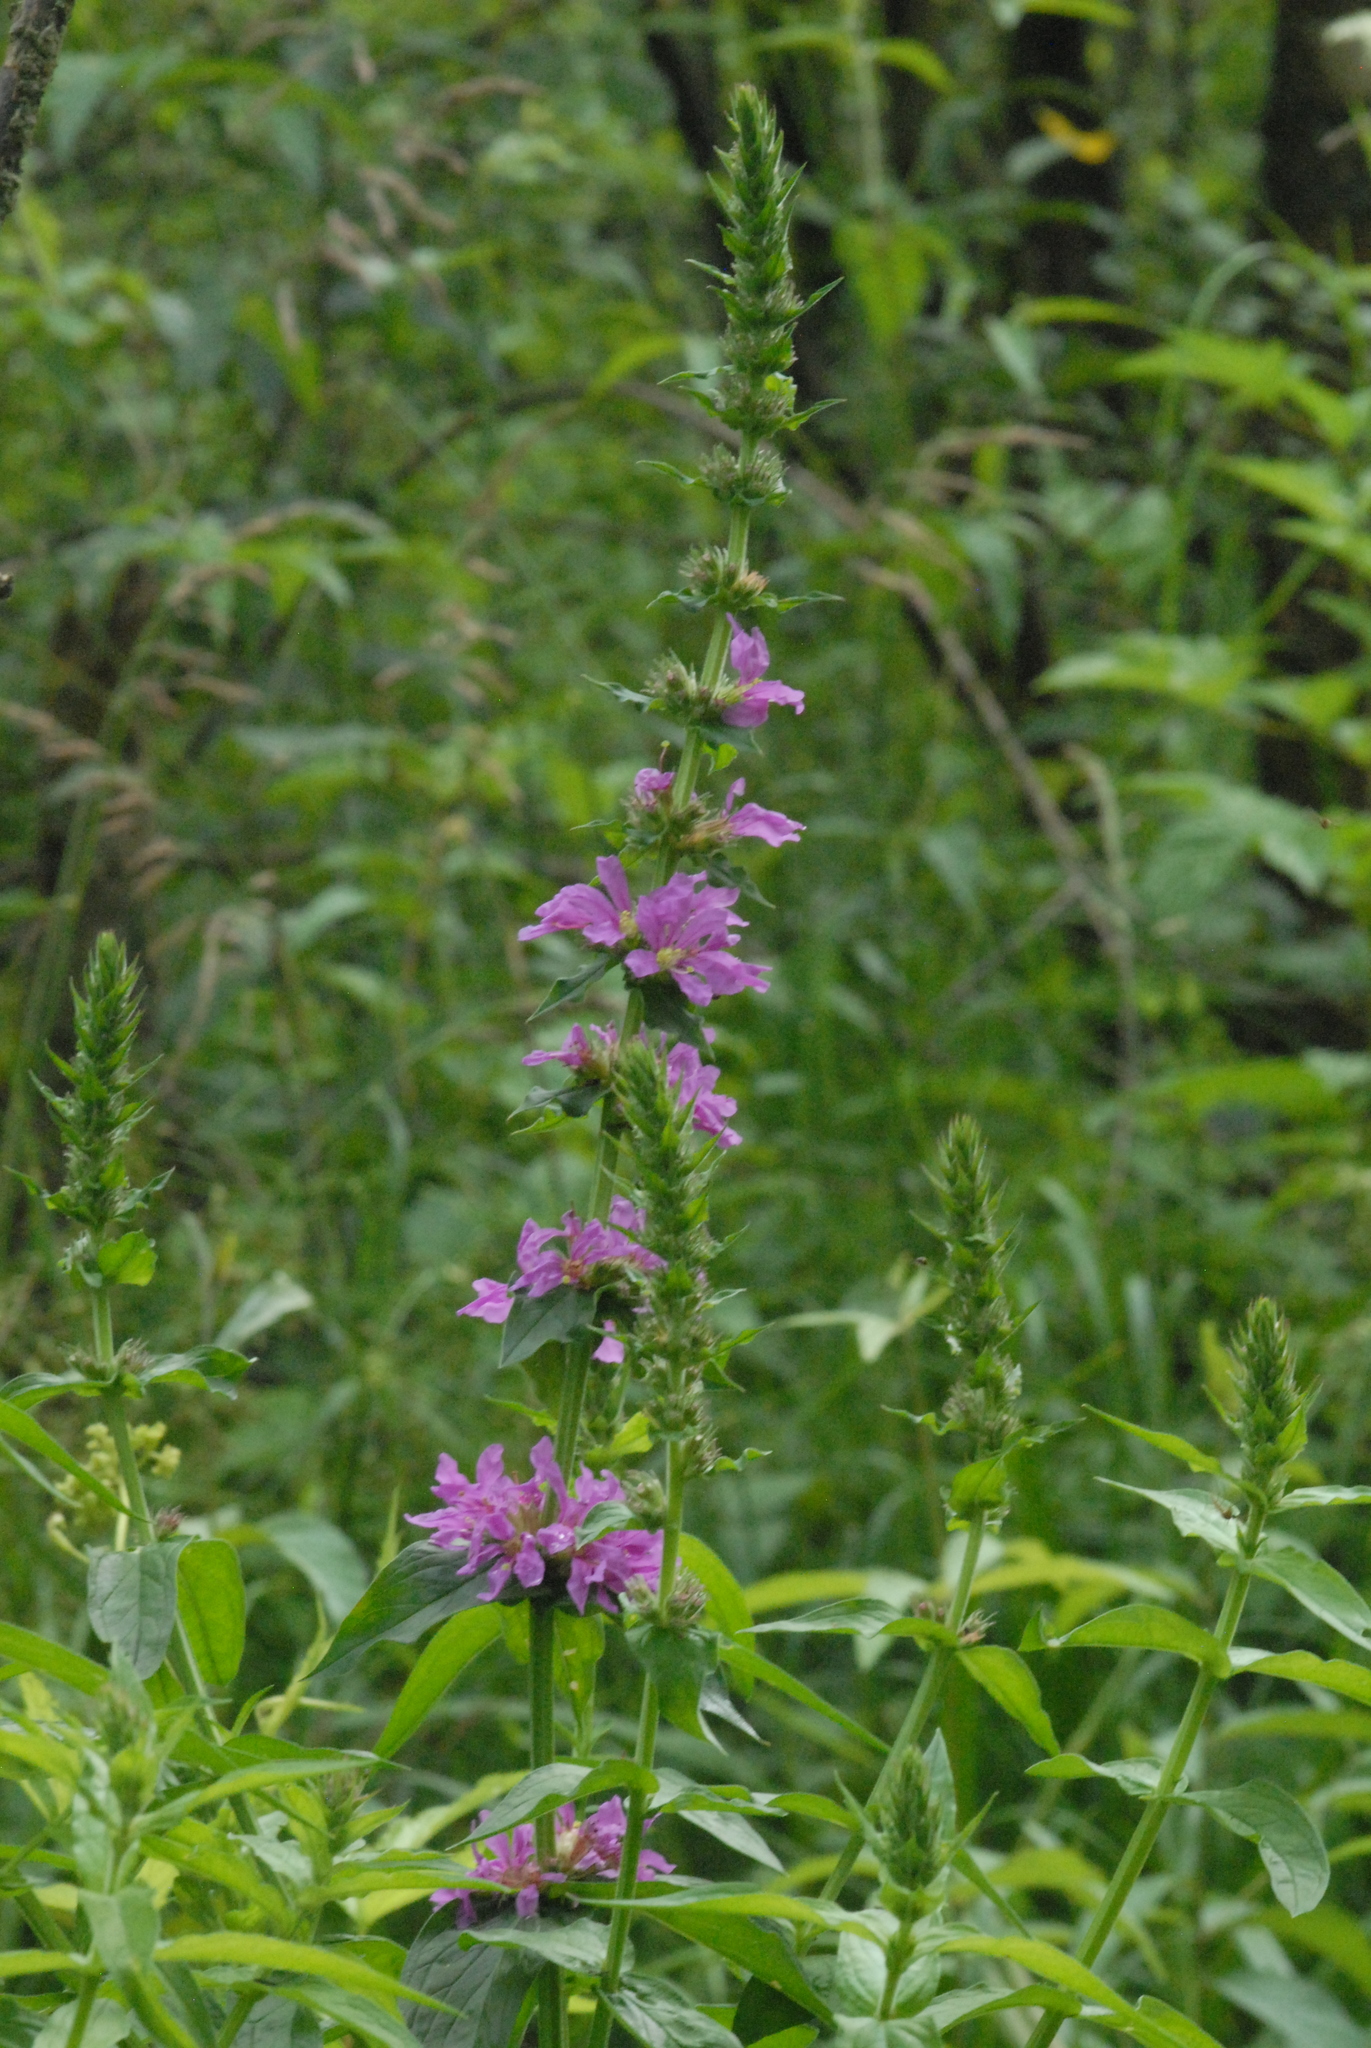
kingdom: Plantae
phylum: Tracheophyta
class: Magnoliopsida
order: Myrtales
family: Lythraceae
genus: Lythrum
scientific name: Lythrum salicaria
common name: Purple loosestrife
